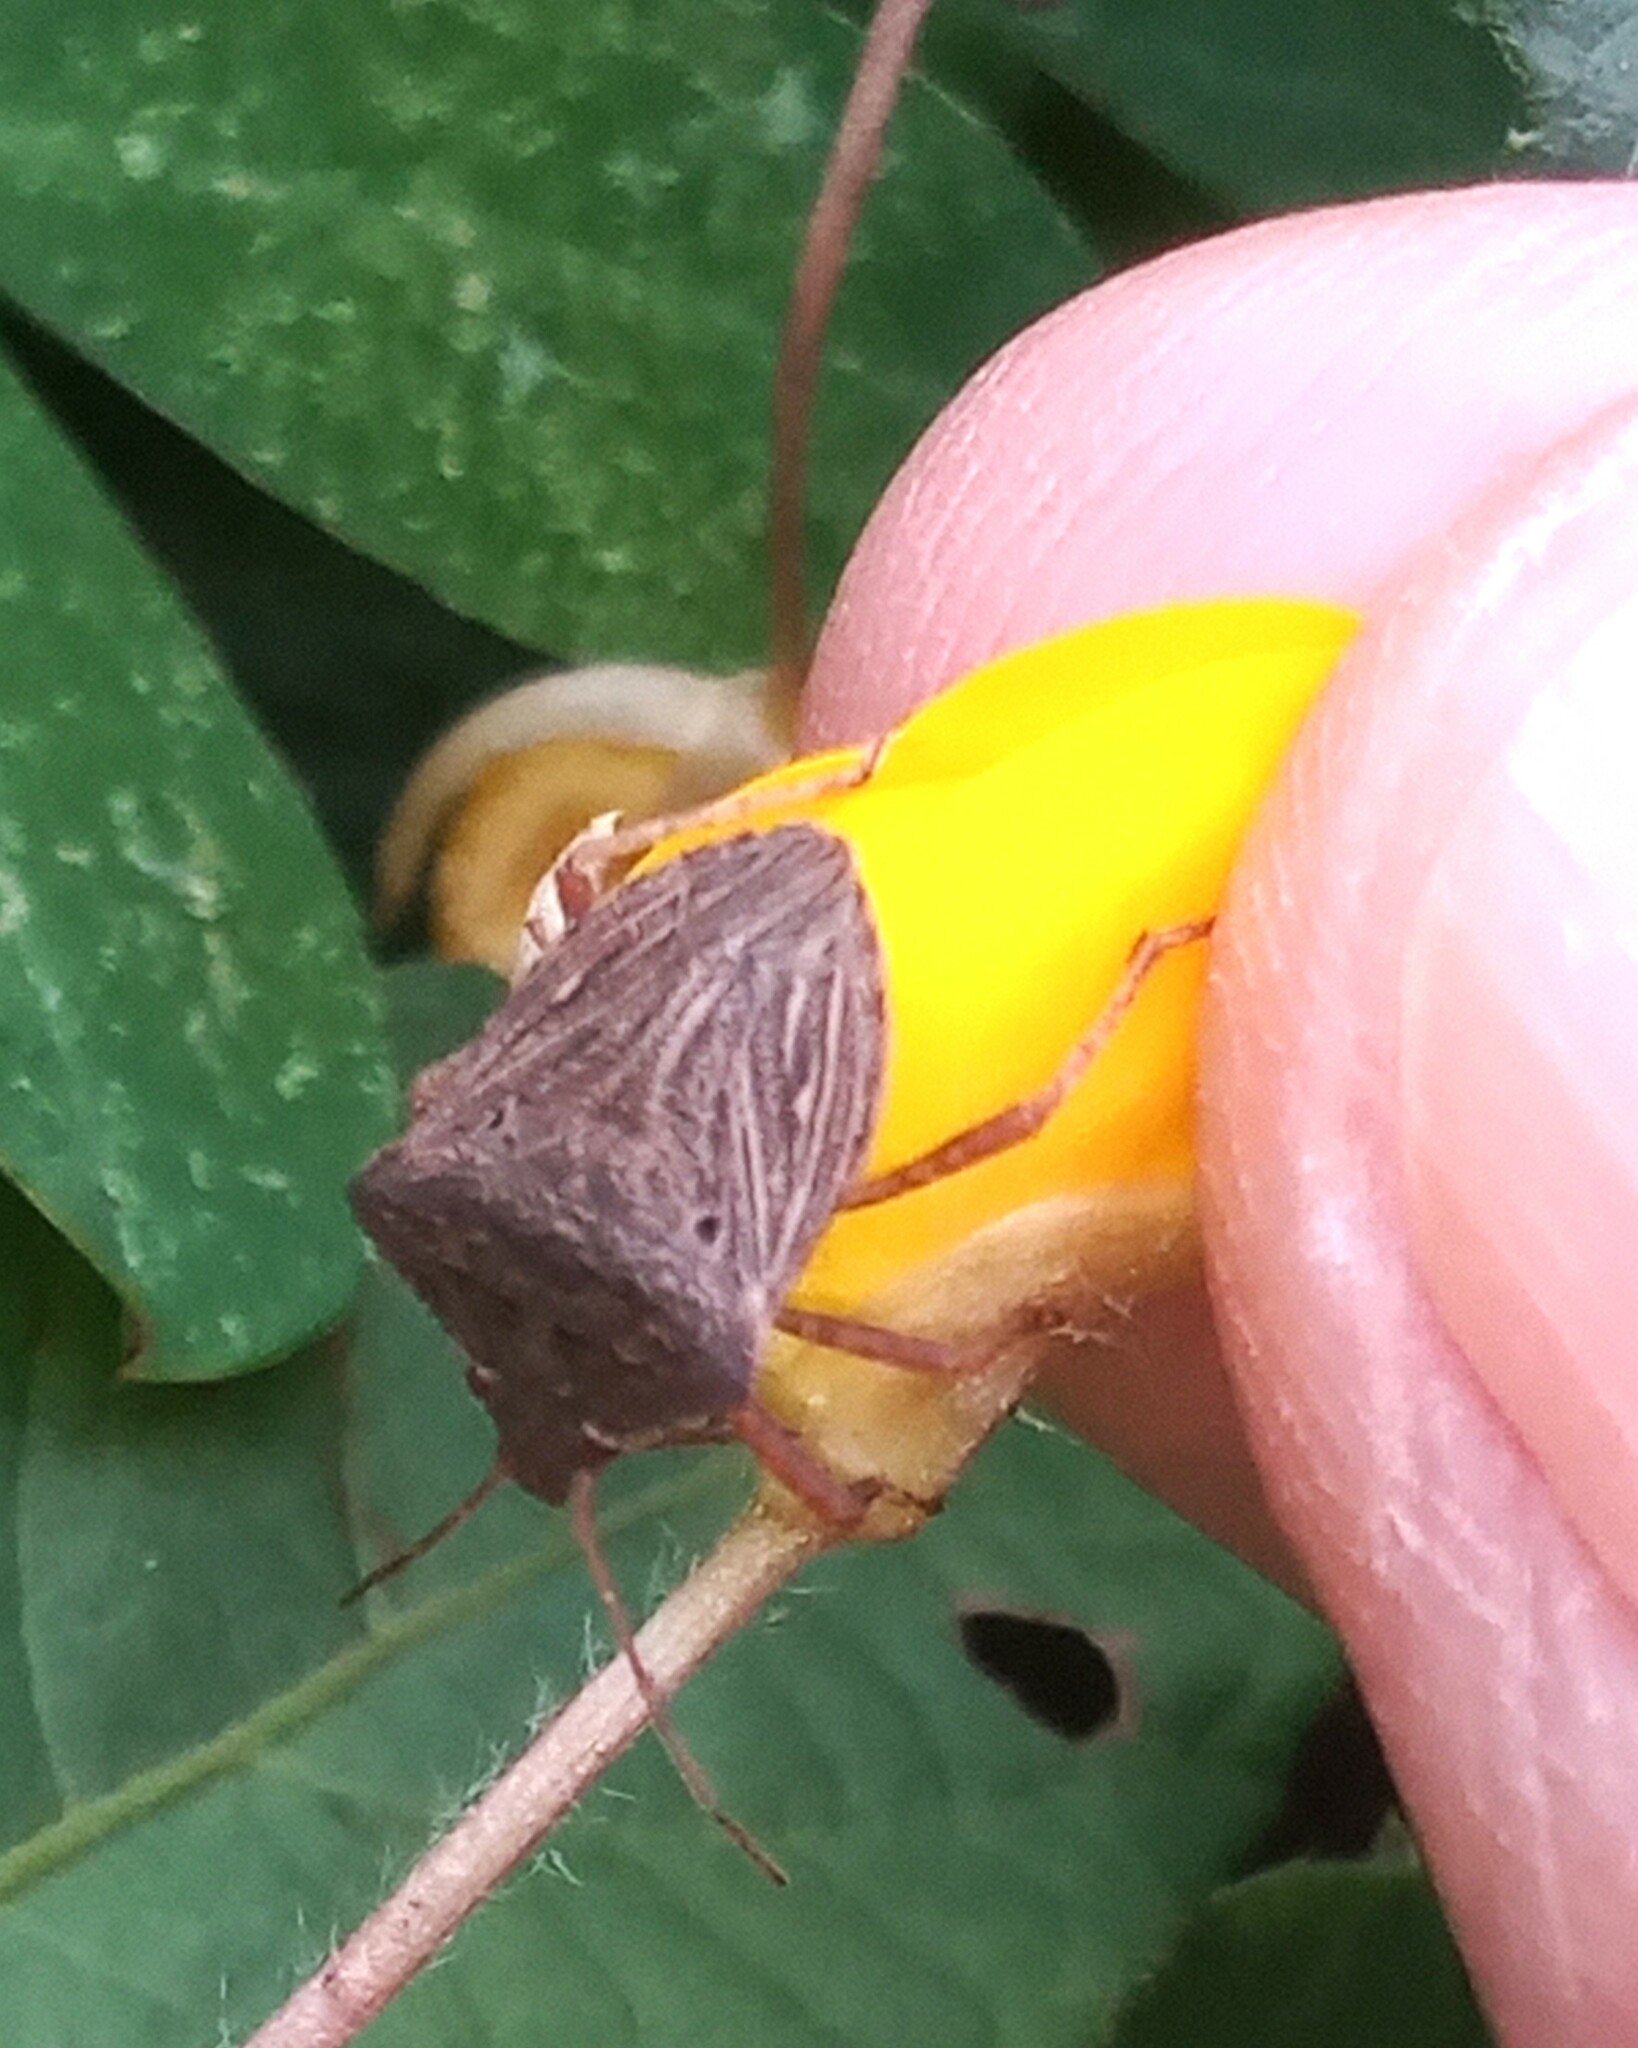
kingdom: Animalia
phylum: Arthropoda
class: Insecta
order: Hemiptera
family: Pentatomidae
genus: Picromerus
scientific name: Picromerus griseus
